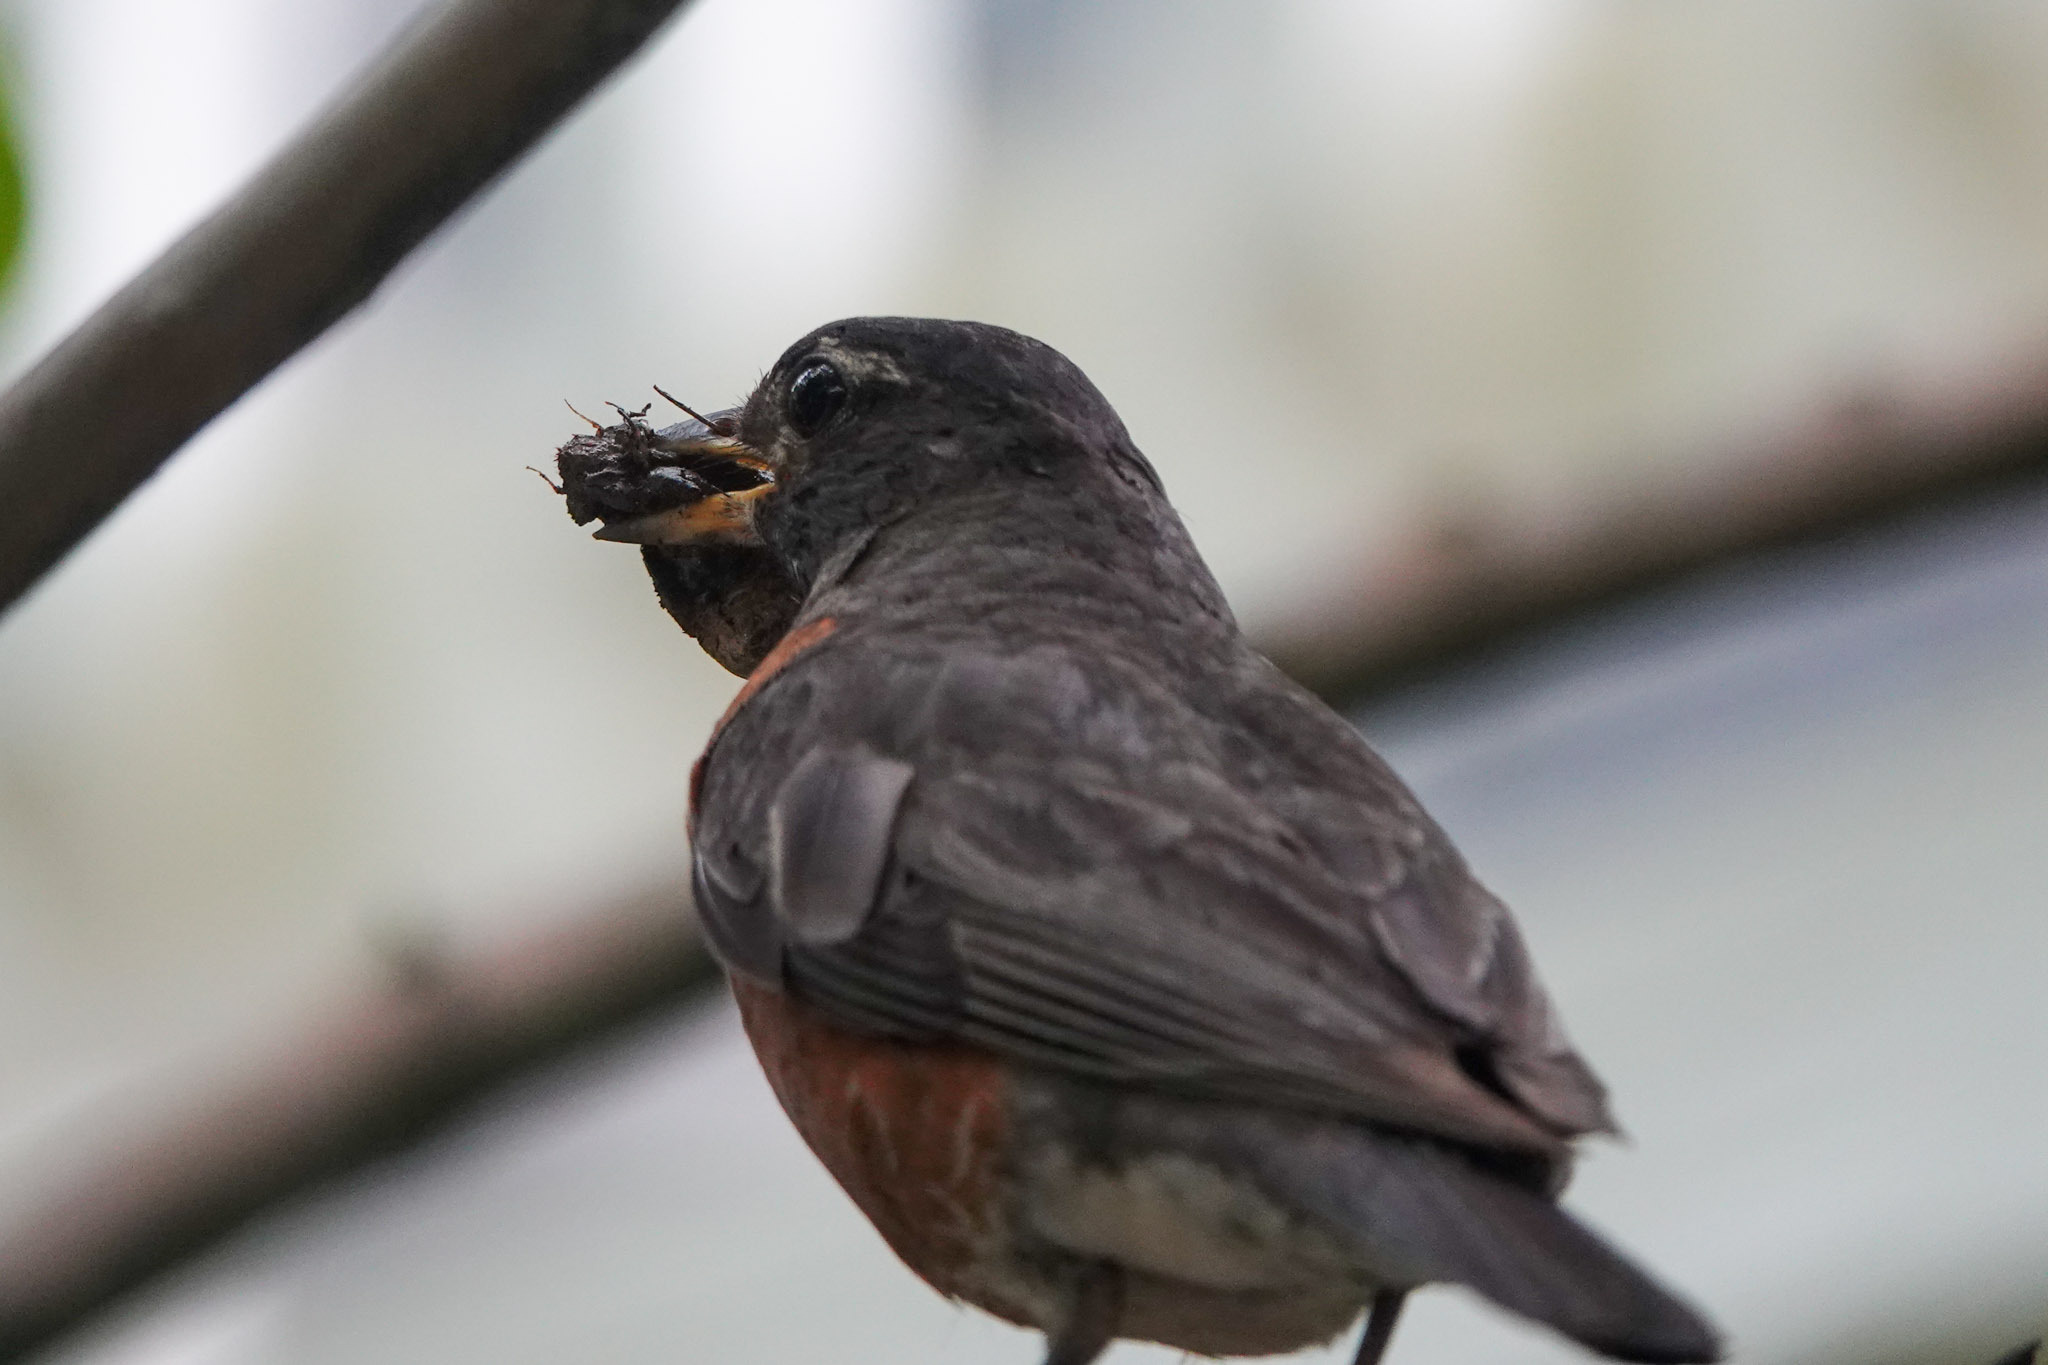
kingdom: Animalia
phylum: Chordata
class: Aves
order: Passeriformes
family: Turdidae
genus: Turdus
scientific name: Turdus migratorius
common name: American robin
